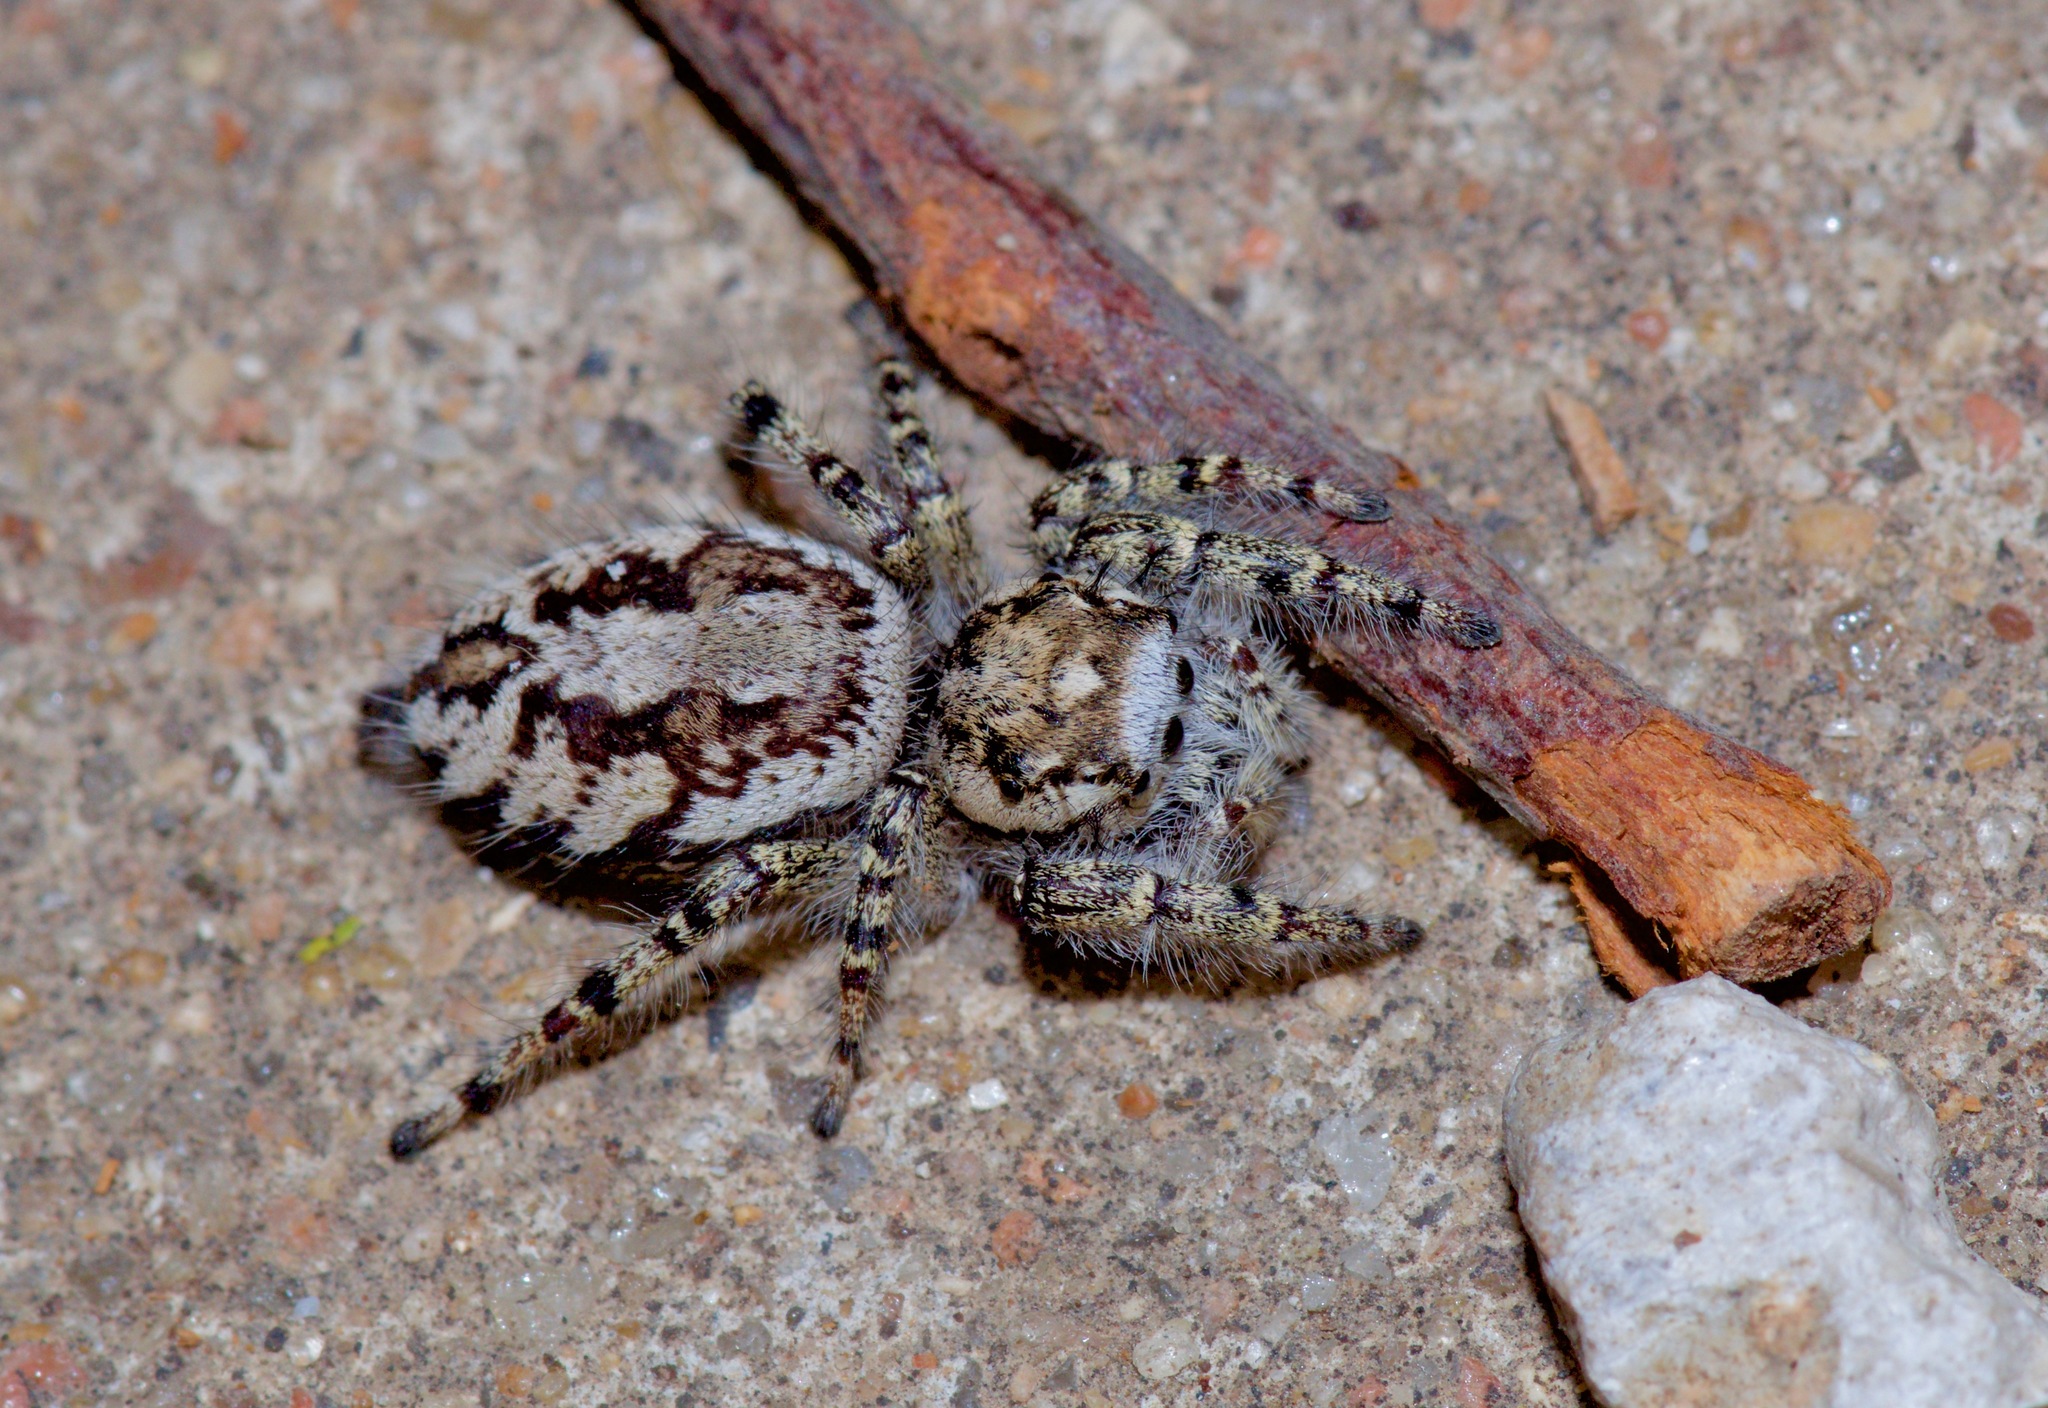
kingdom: Animalia
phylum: Arthropoda
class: Arachnida
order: Araneae
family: Salticidae
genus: Phidippus
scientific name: Phidippus pruinosus
